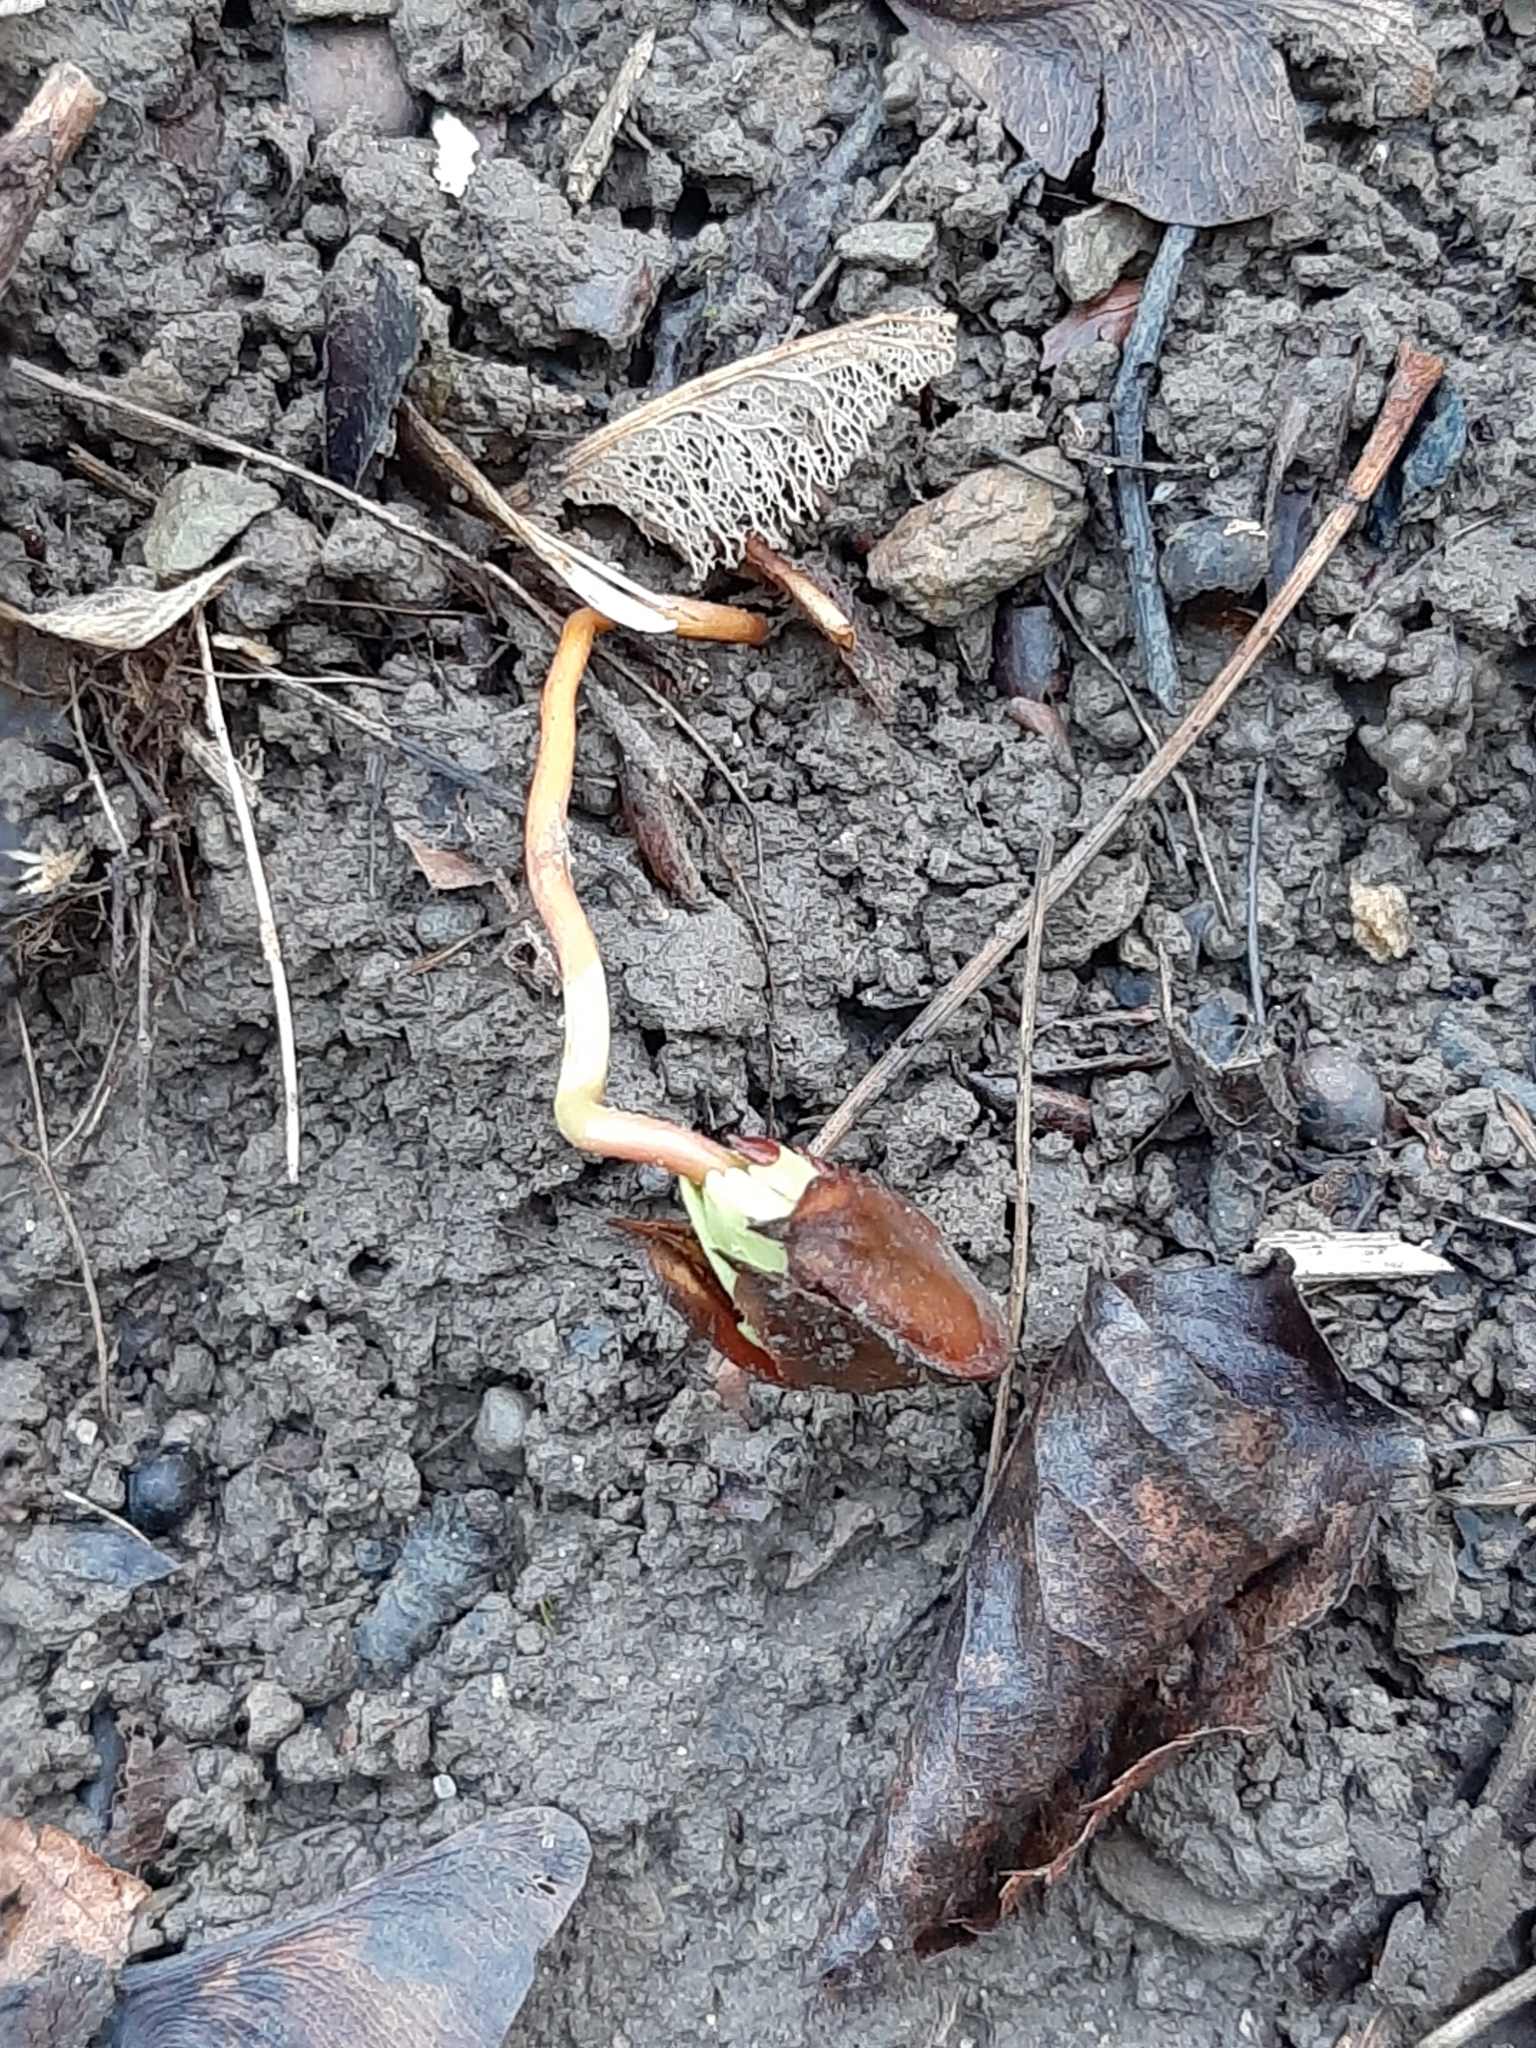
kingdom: Plantae
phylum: Tracheophyta
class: Magnoliopsida
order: Fagales
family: Fagaceae
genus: Fagus
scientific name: Fagus sylvatica
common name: Beech
